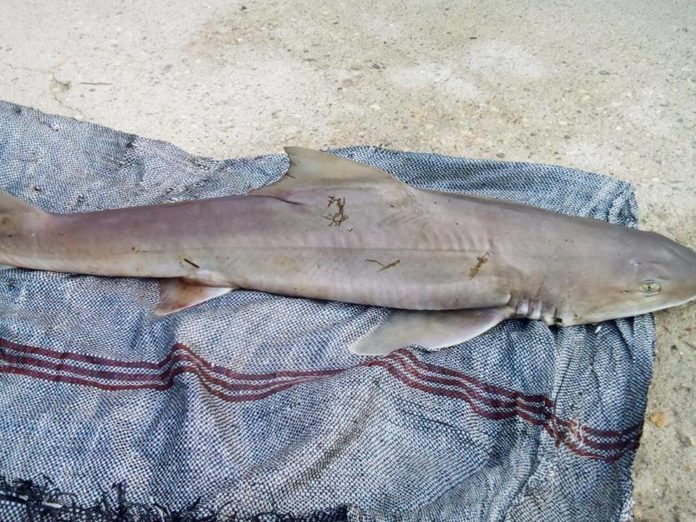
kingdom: Animalia
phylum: Chordata
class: Elasmobranchii
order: Carcharhiniformes
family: Triakidae
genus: Mustelus
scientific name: Mustelus mustelus
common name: Smooth-hound
